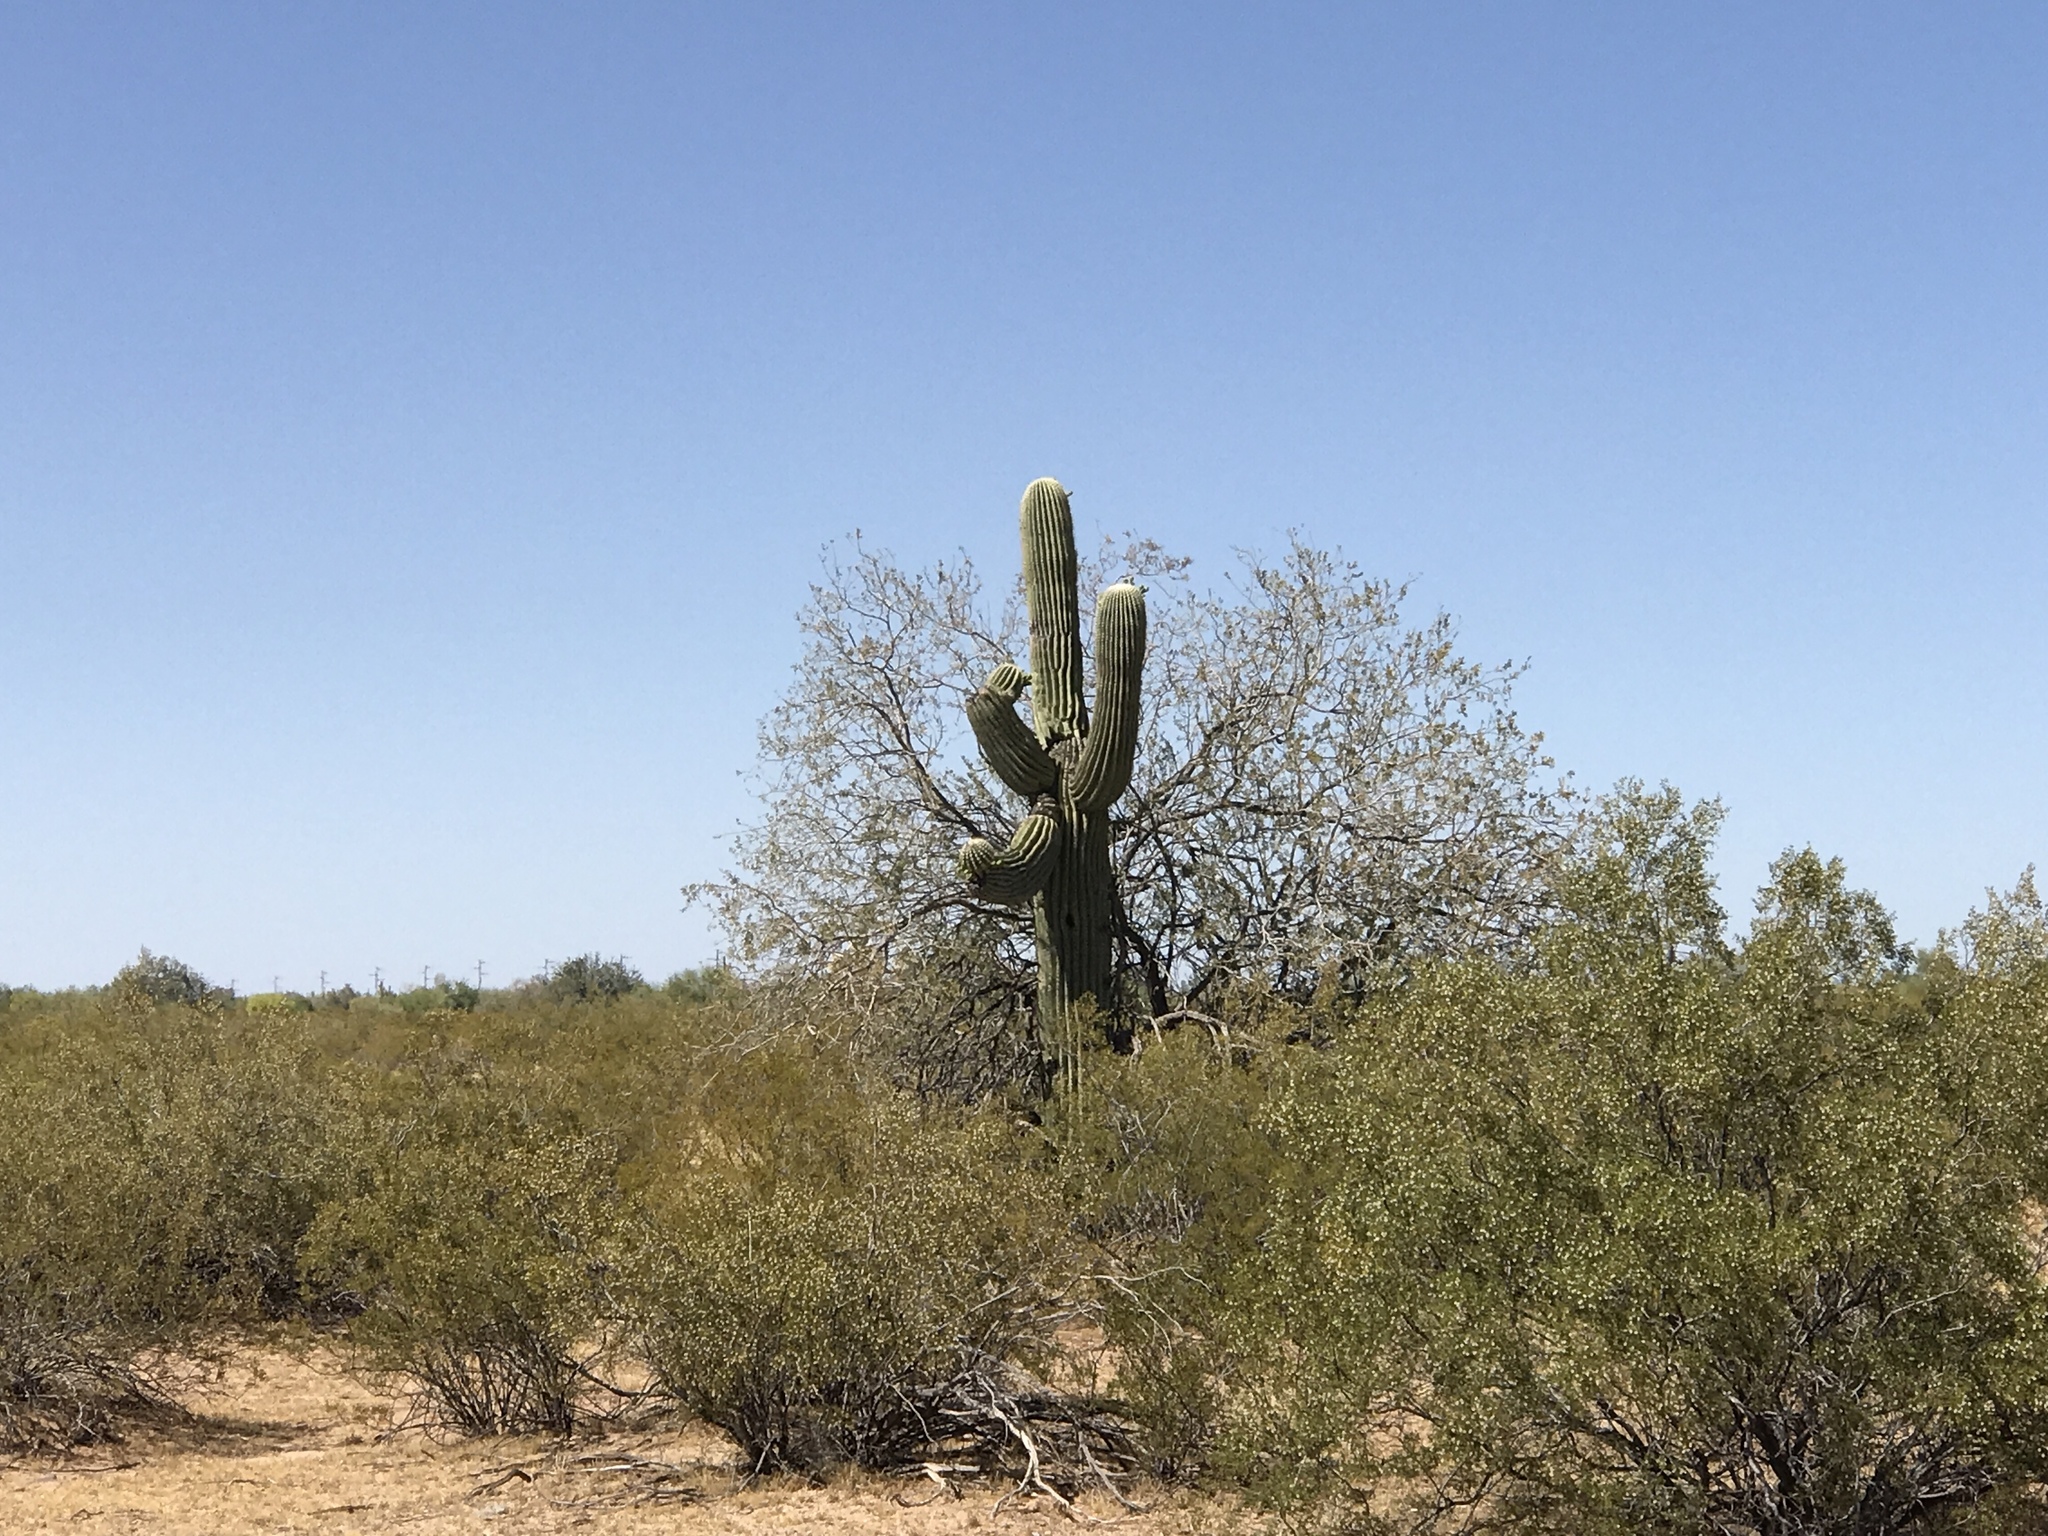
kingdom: Plantae
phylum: Tracheophyta
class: Magnoliopsida
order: Caryophyllales
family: Cactaceae
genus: Carnegiea
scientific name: Carnegiea gigantea
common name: Saguaro
